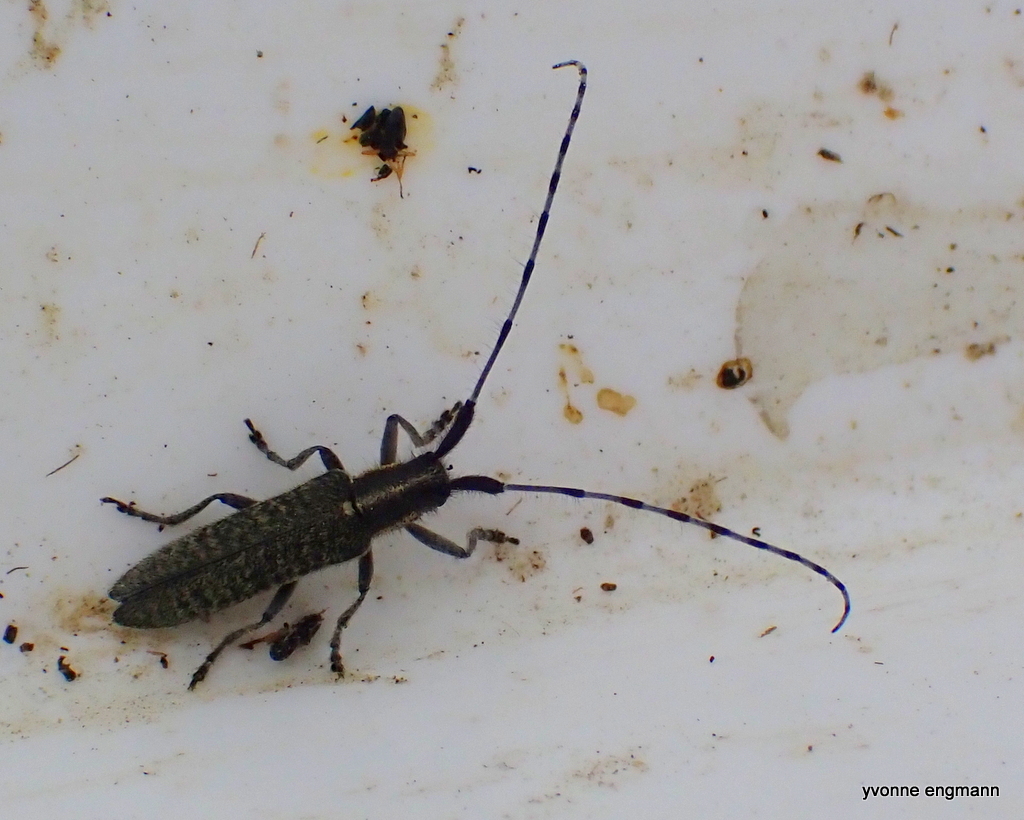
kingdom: Animalia
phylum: Arthropoda
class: Insecta
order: Coleoptera
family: Cerambycidae
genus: Agapanthia
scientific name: Agapanthia villosoviridescens
